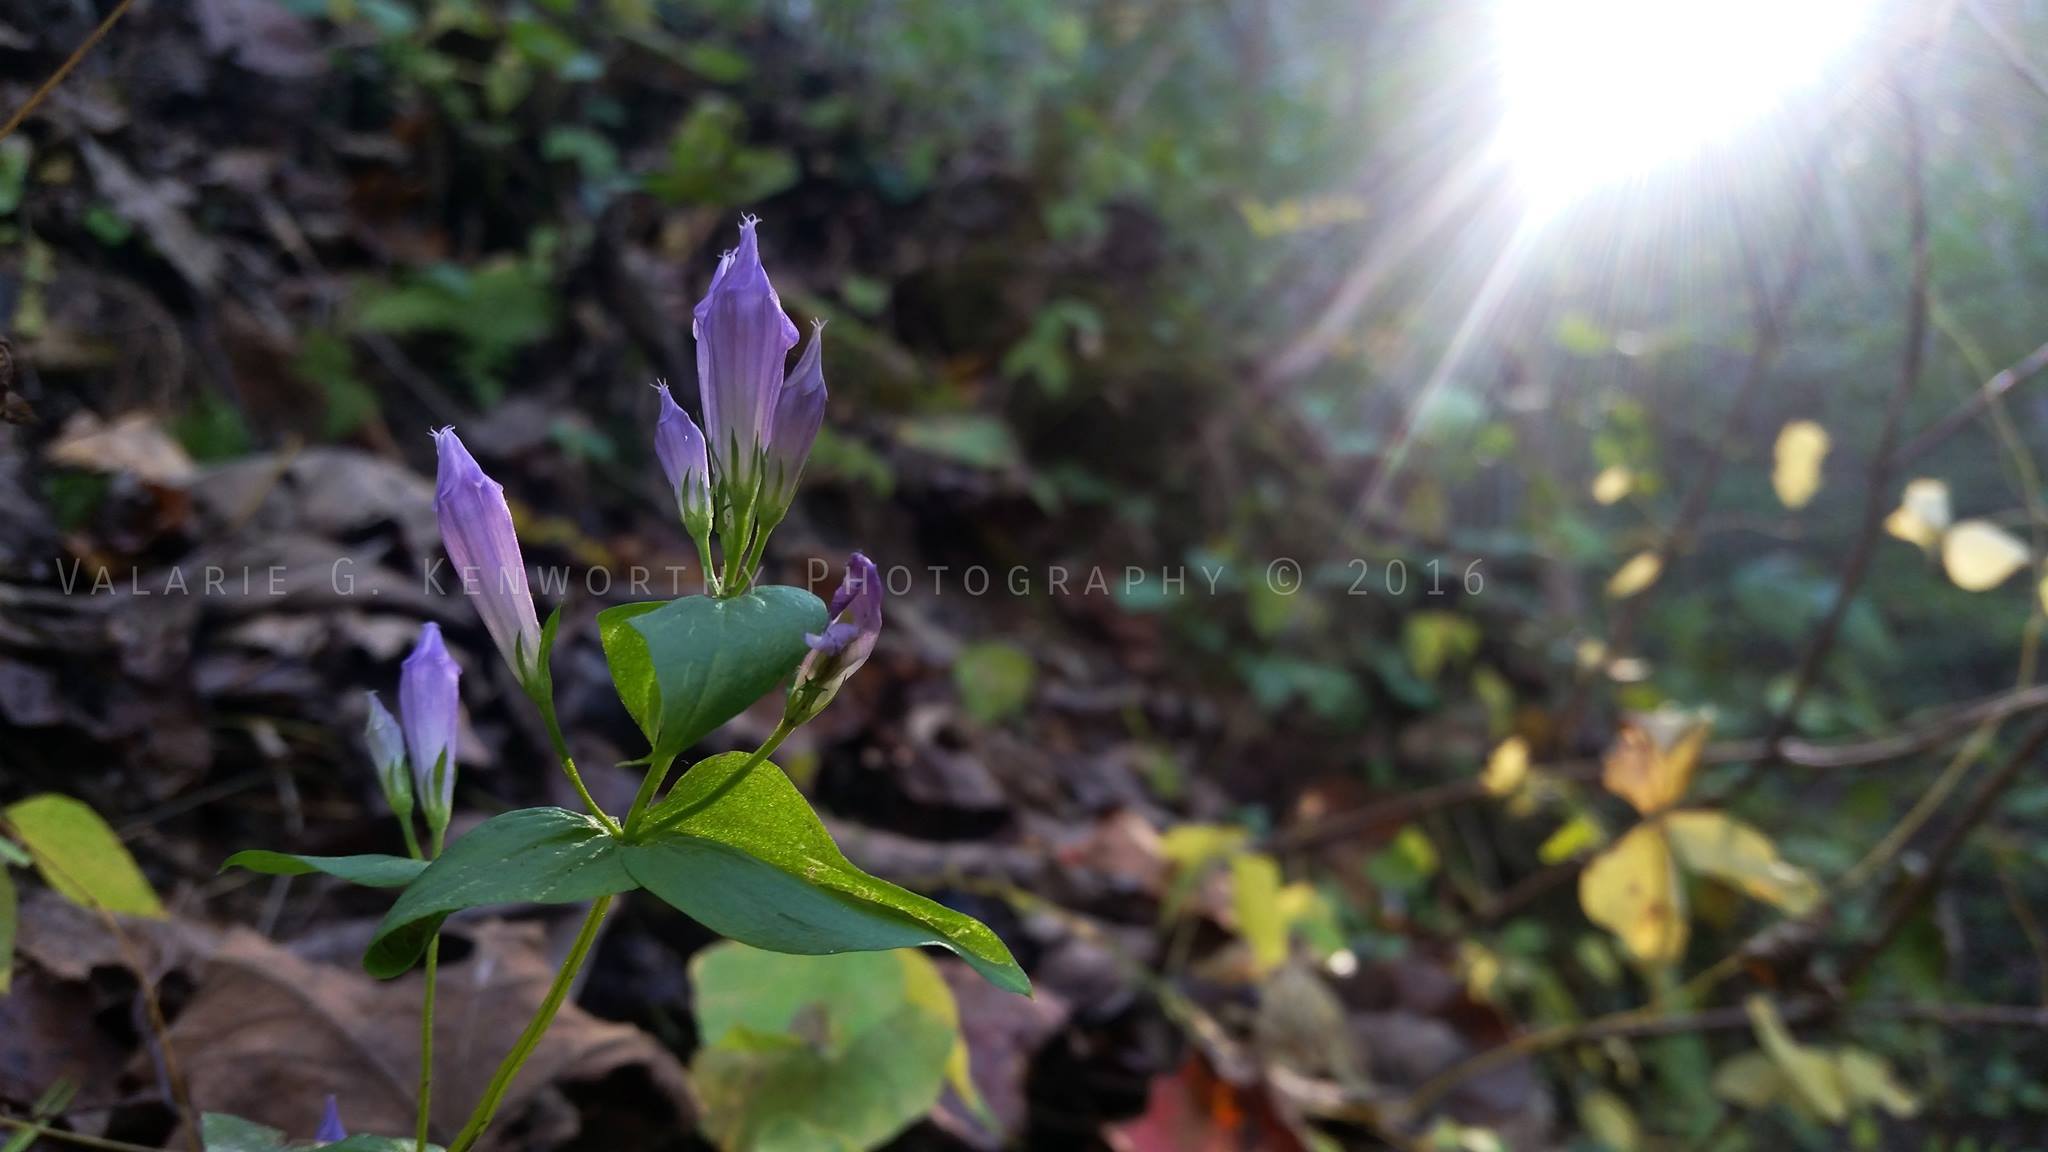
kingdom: Plantae
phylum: Tracheophyta
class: Magnoliopsida
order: Gentianales
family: Gentianaceae
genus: Gentianella
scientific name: Gentianella quinquefolia
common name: Agueweed
